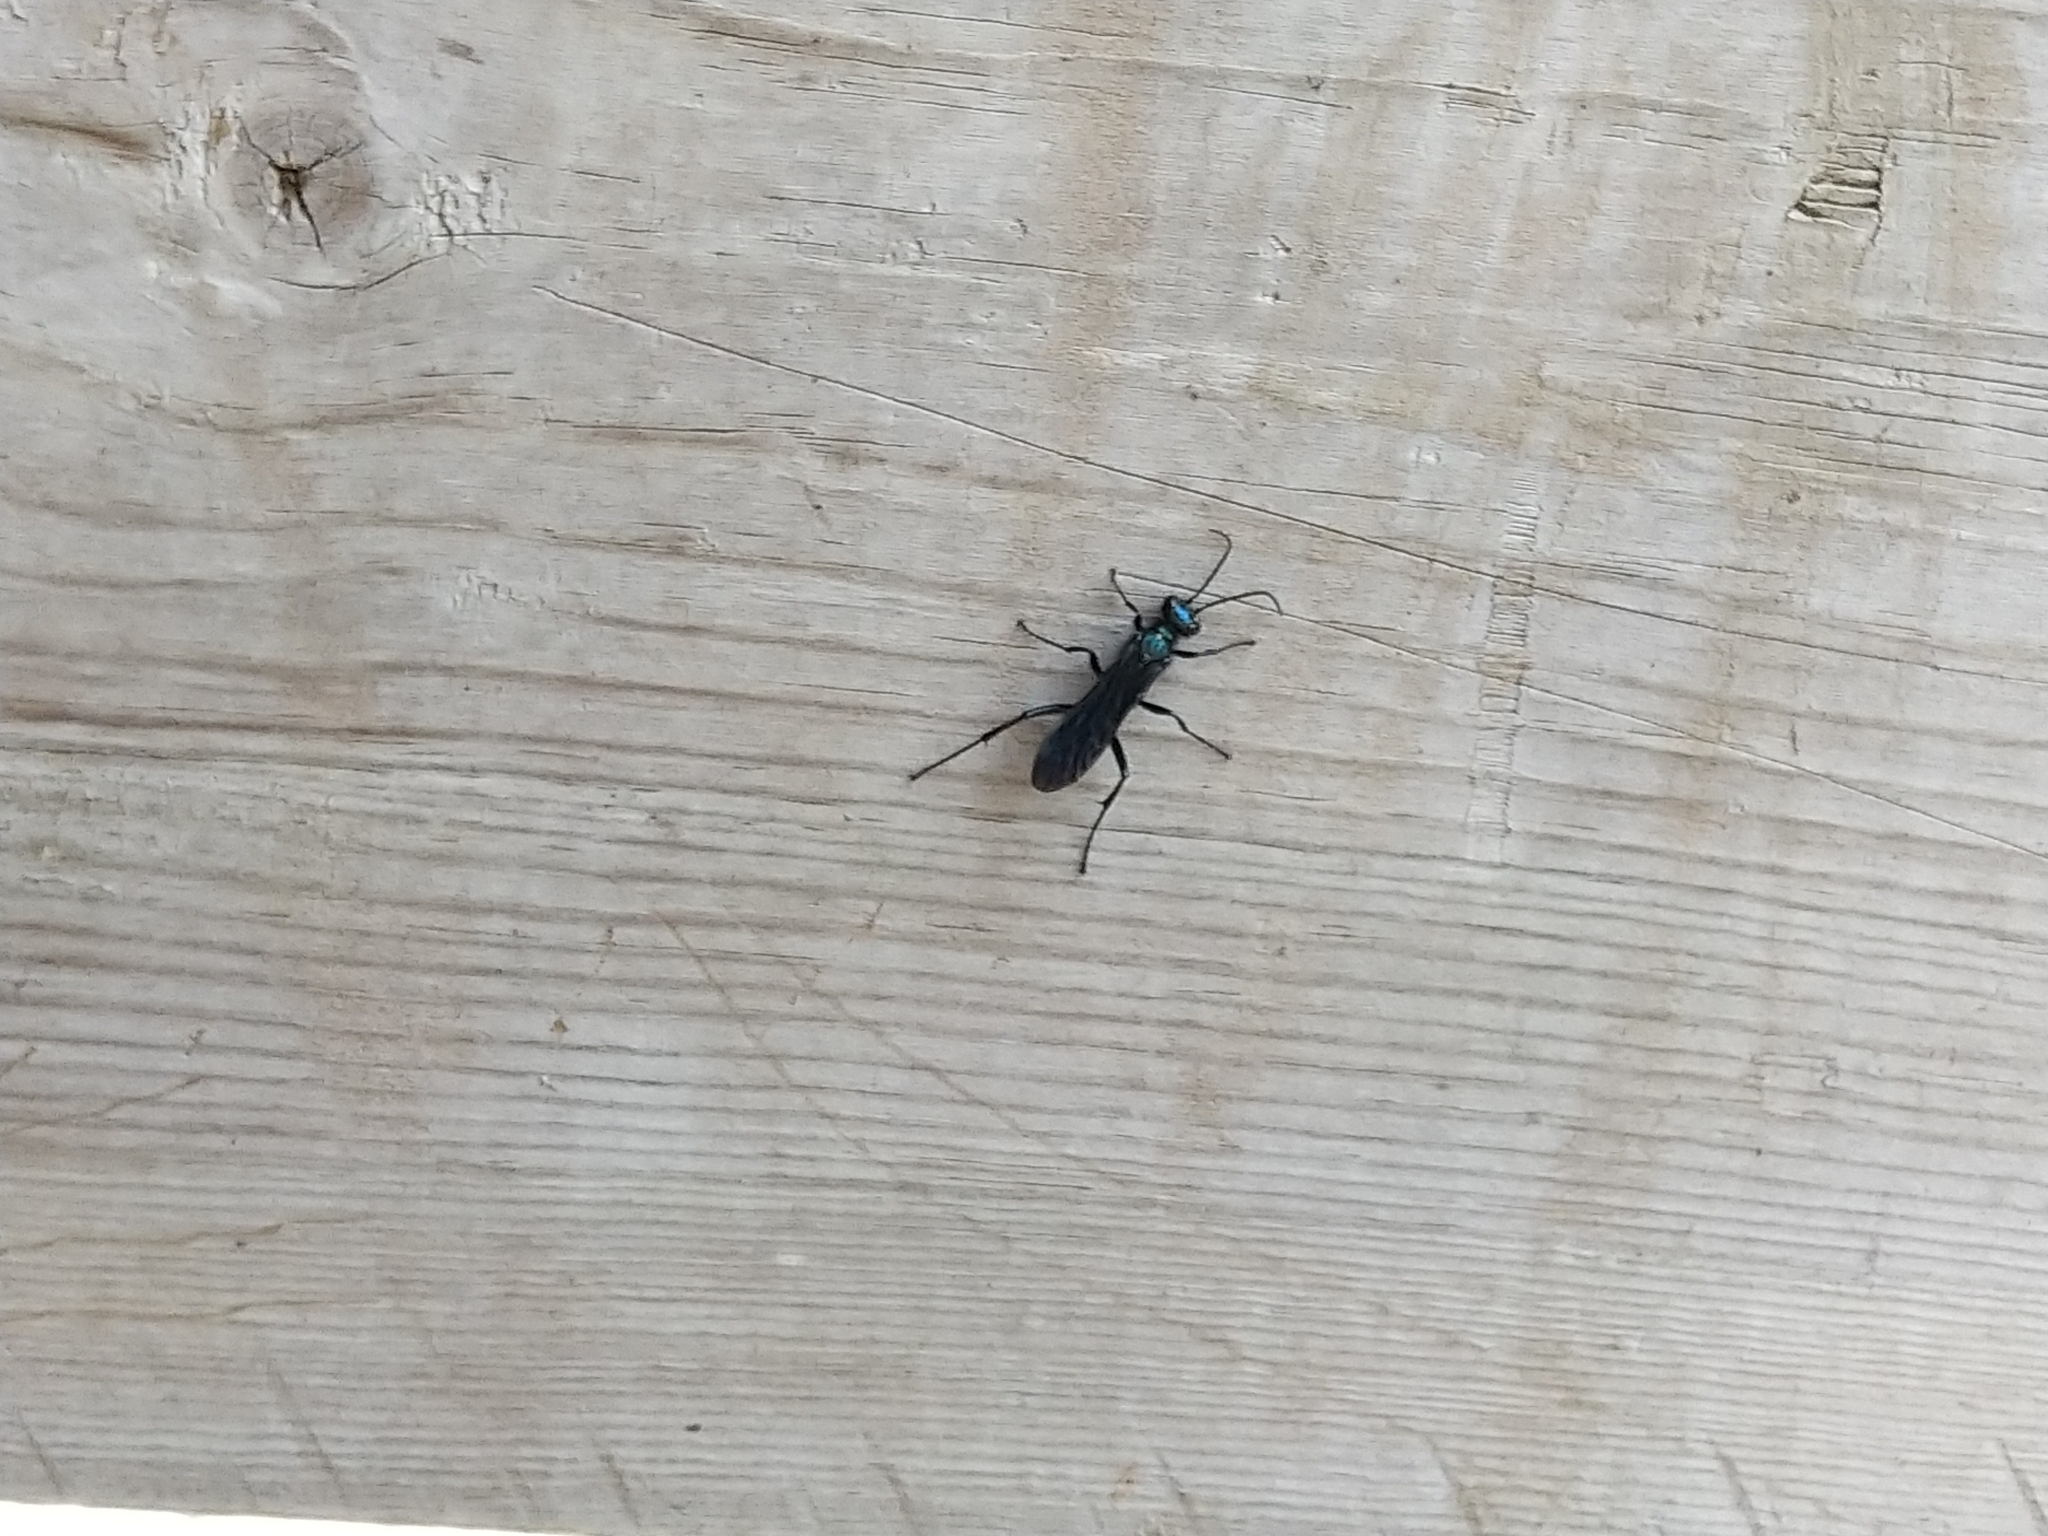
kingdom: Animalia
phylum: Arthropoda
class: Insecta
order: Hymenoptera
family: Sphecidae
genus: Chalybion
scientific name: Chalybion californicum
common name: Mud dauber
